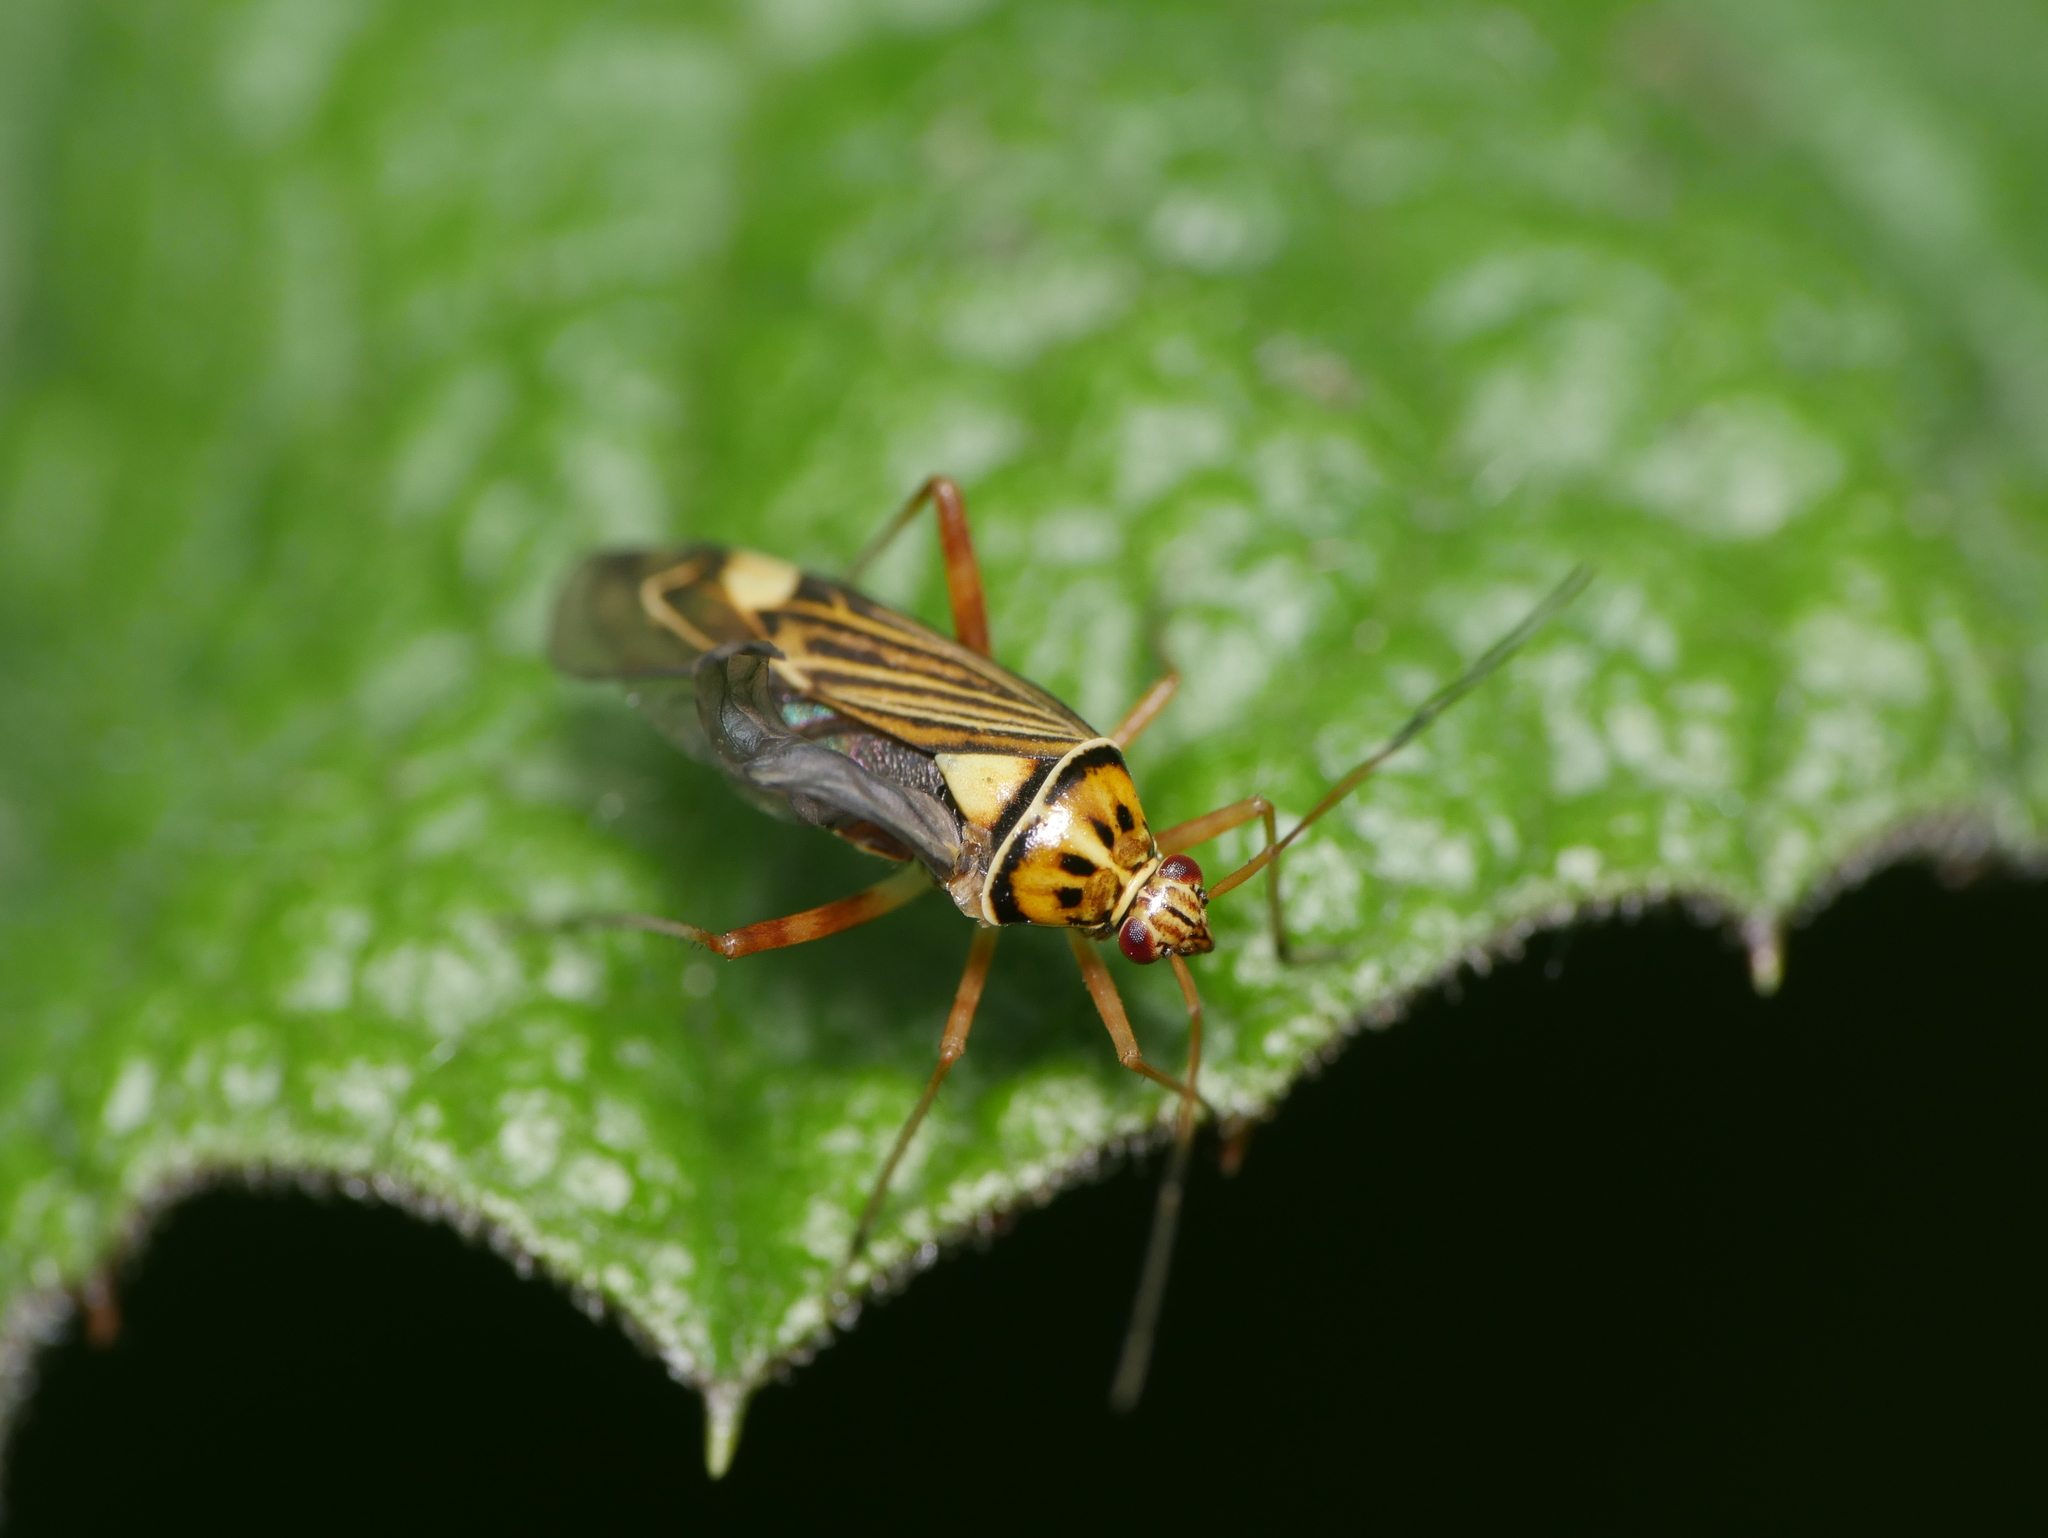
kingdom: Animalia
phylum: Arthropoda
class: Insecta
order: Hemiptera
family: Miridae
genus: Rhabdomiris
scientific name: Rhabdomiris striatellus
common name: Plant bug
